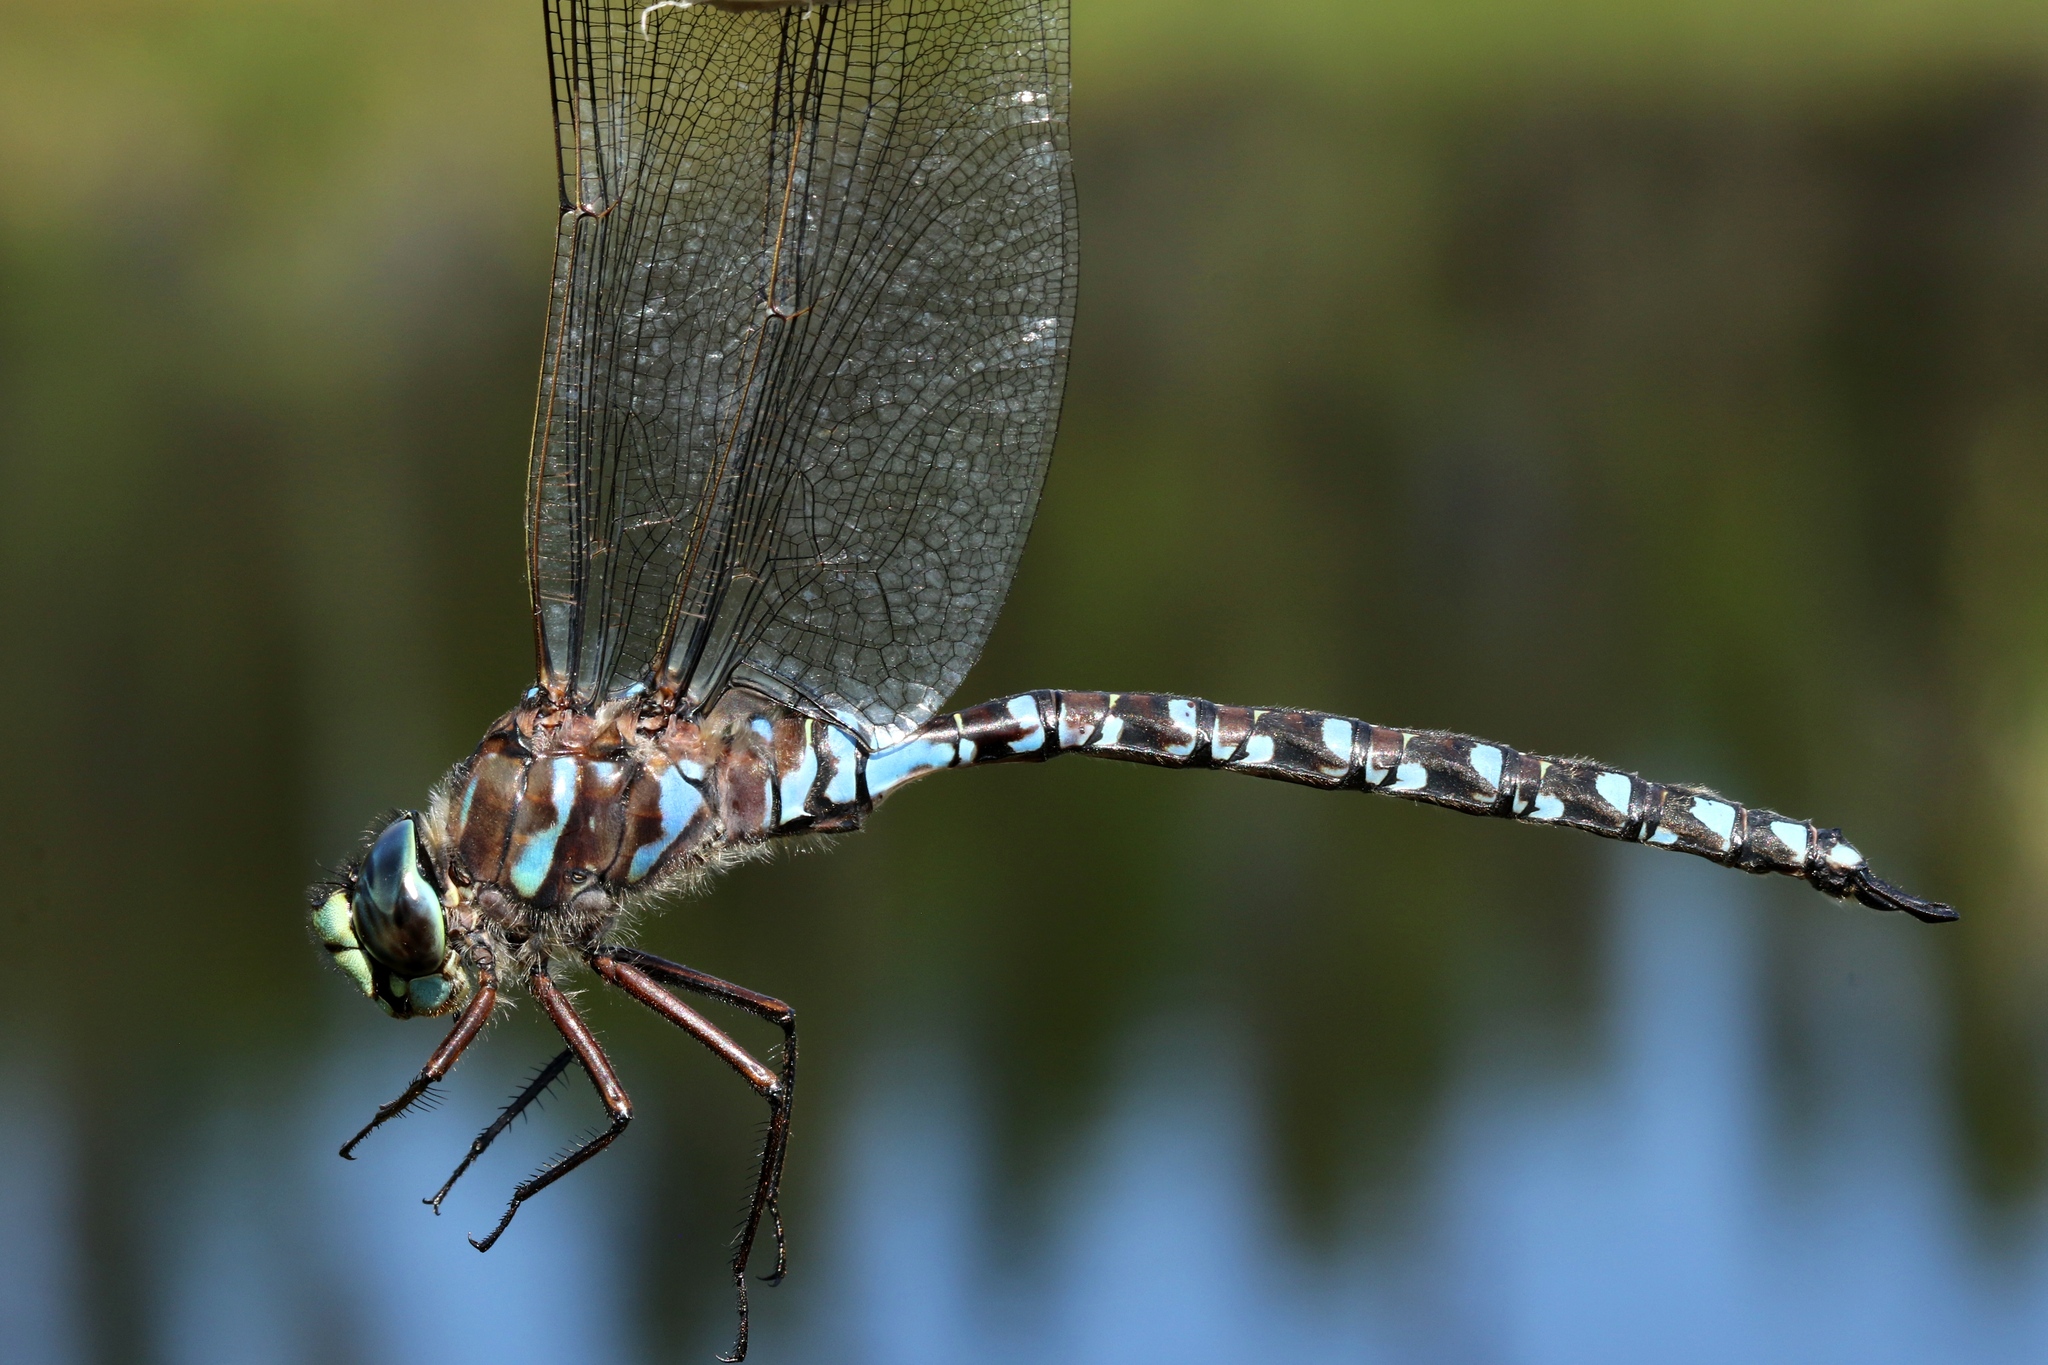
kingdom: Animalia
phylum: Arthropoda
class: Insecta
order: Odonata
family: Aeshnidae
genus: Aeshna
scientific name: Aeshna eremita
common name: Lake darner
